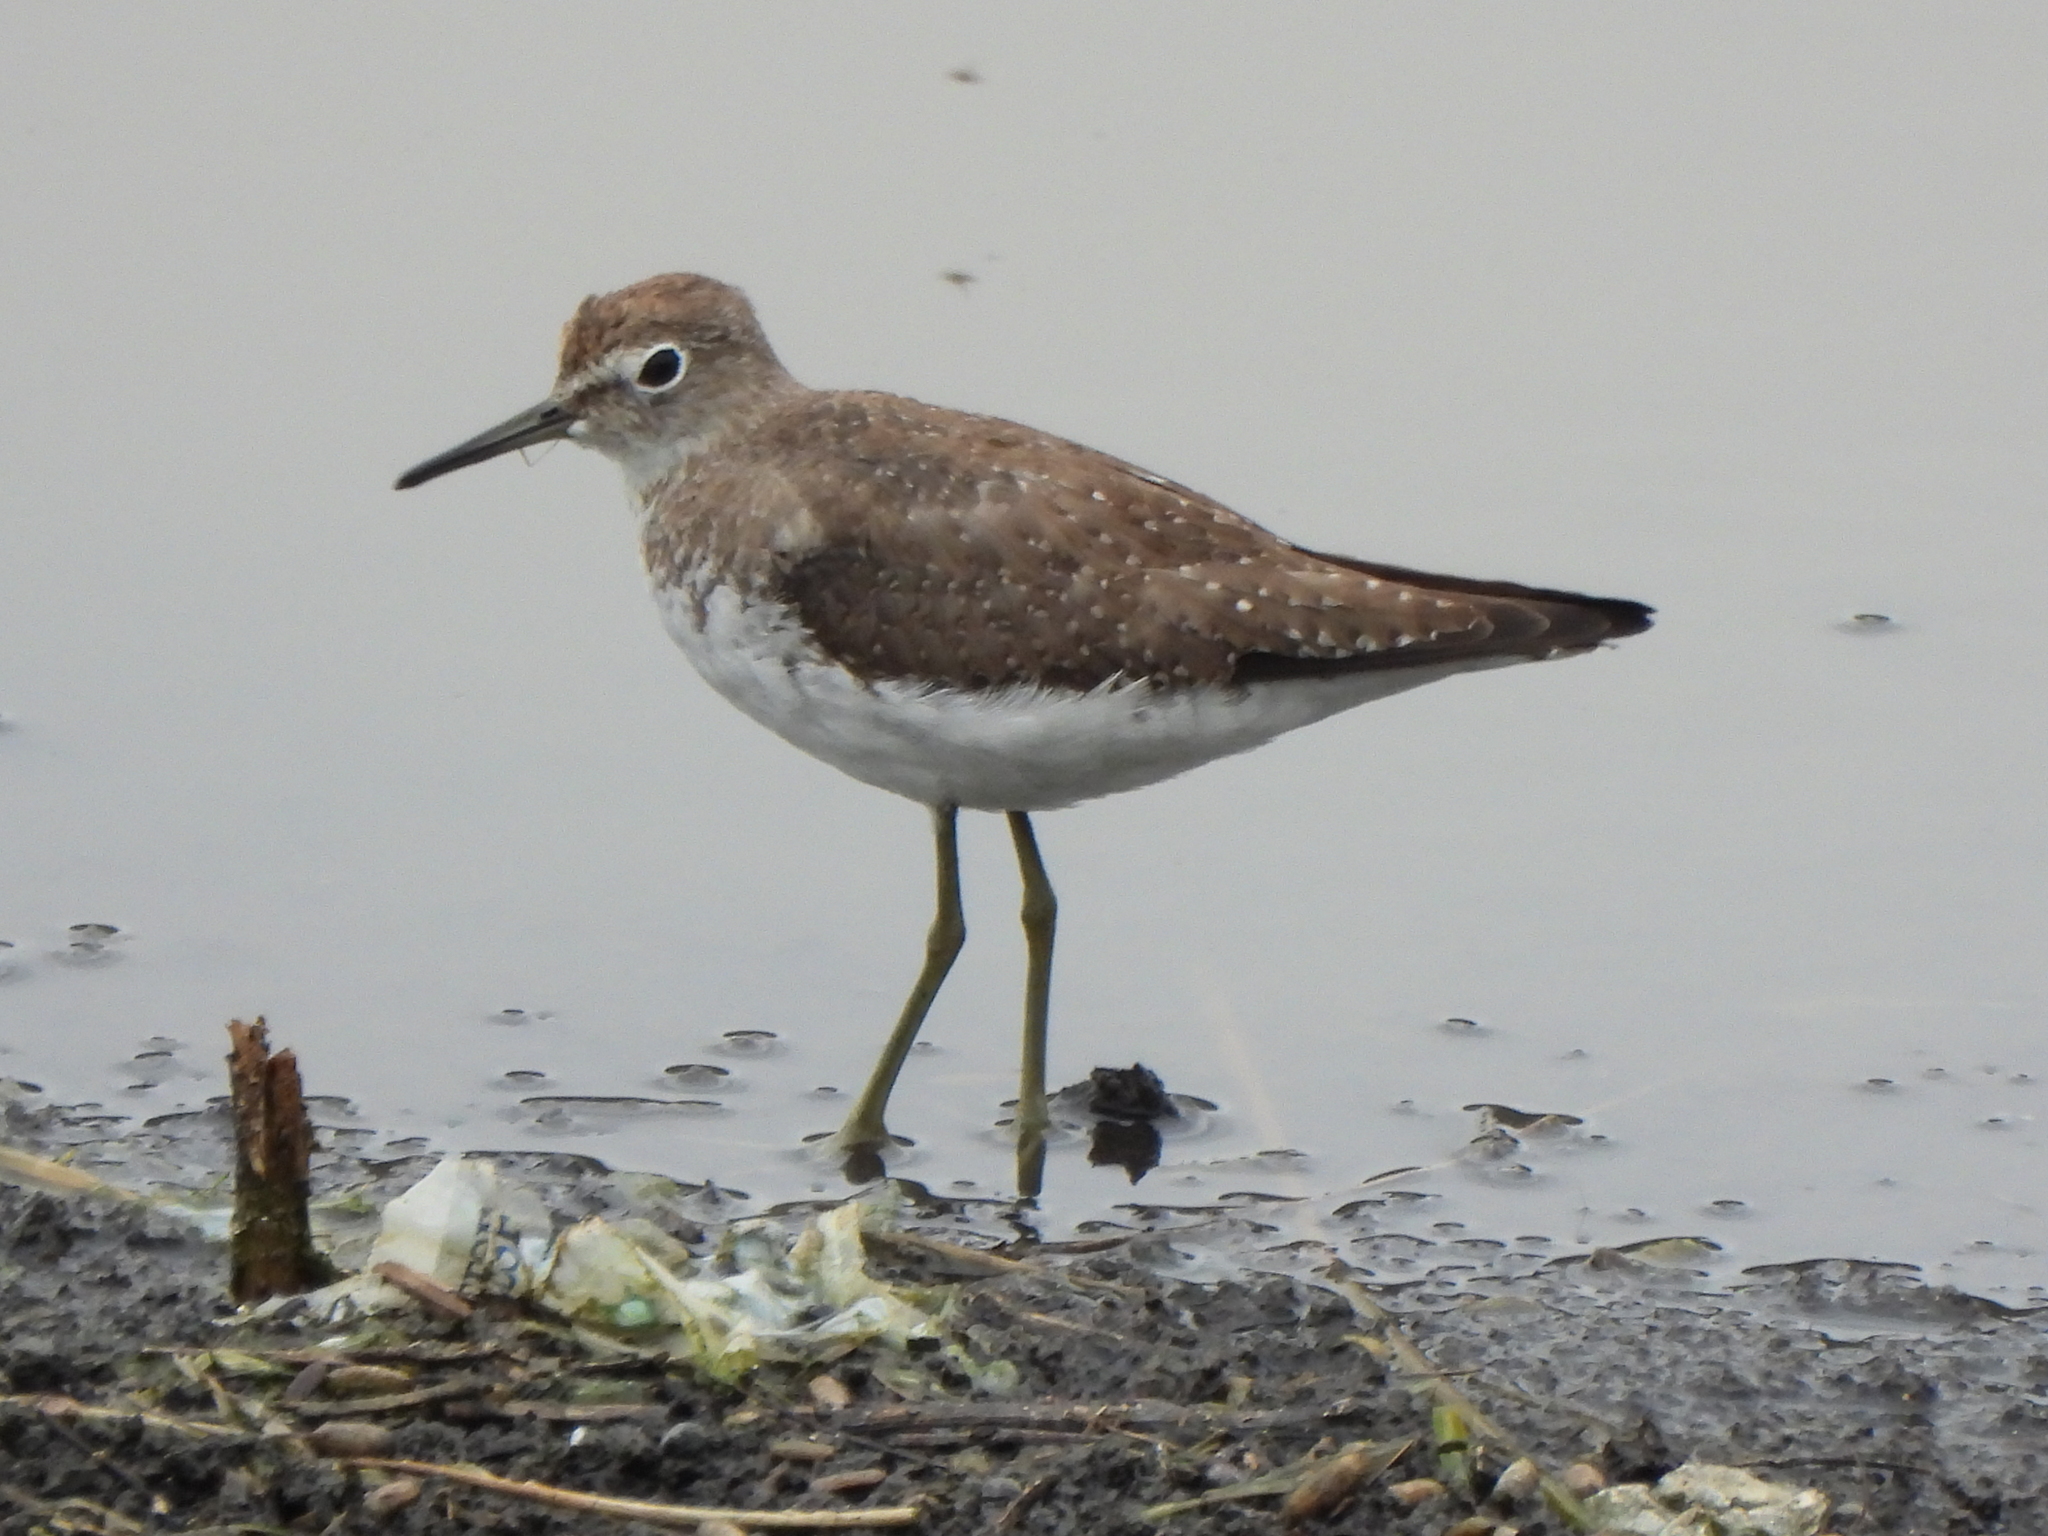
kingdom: Animalia
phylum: Chordata
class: Aves
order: Charadriiformes
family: Scolopacidae
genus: Tringa
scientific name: Tringa solitaria
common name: Solitary sandpiper
